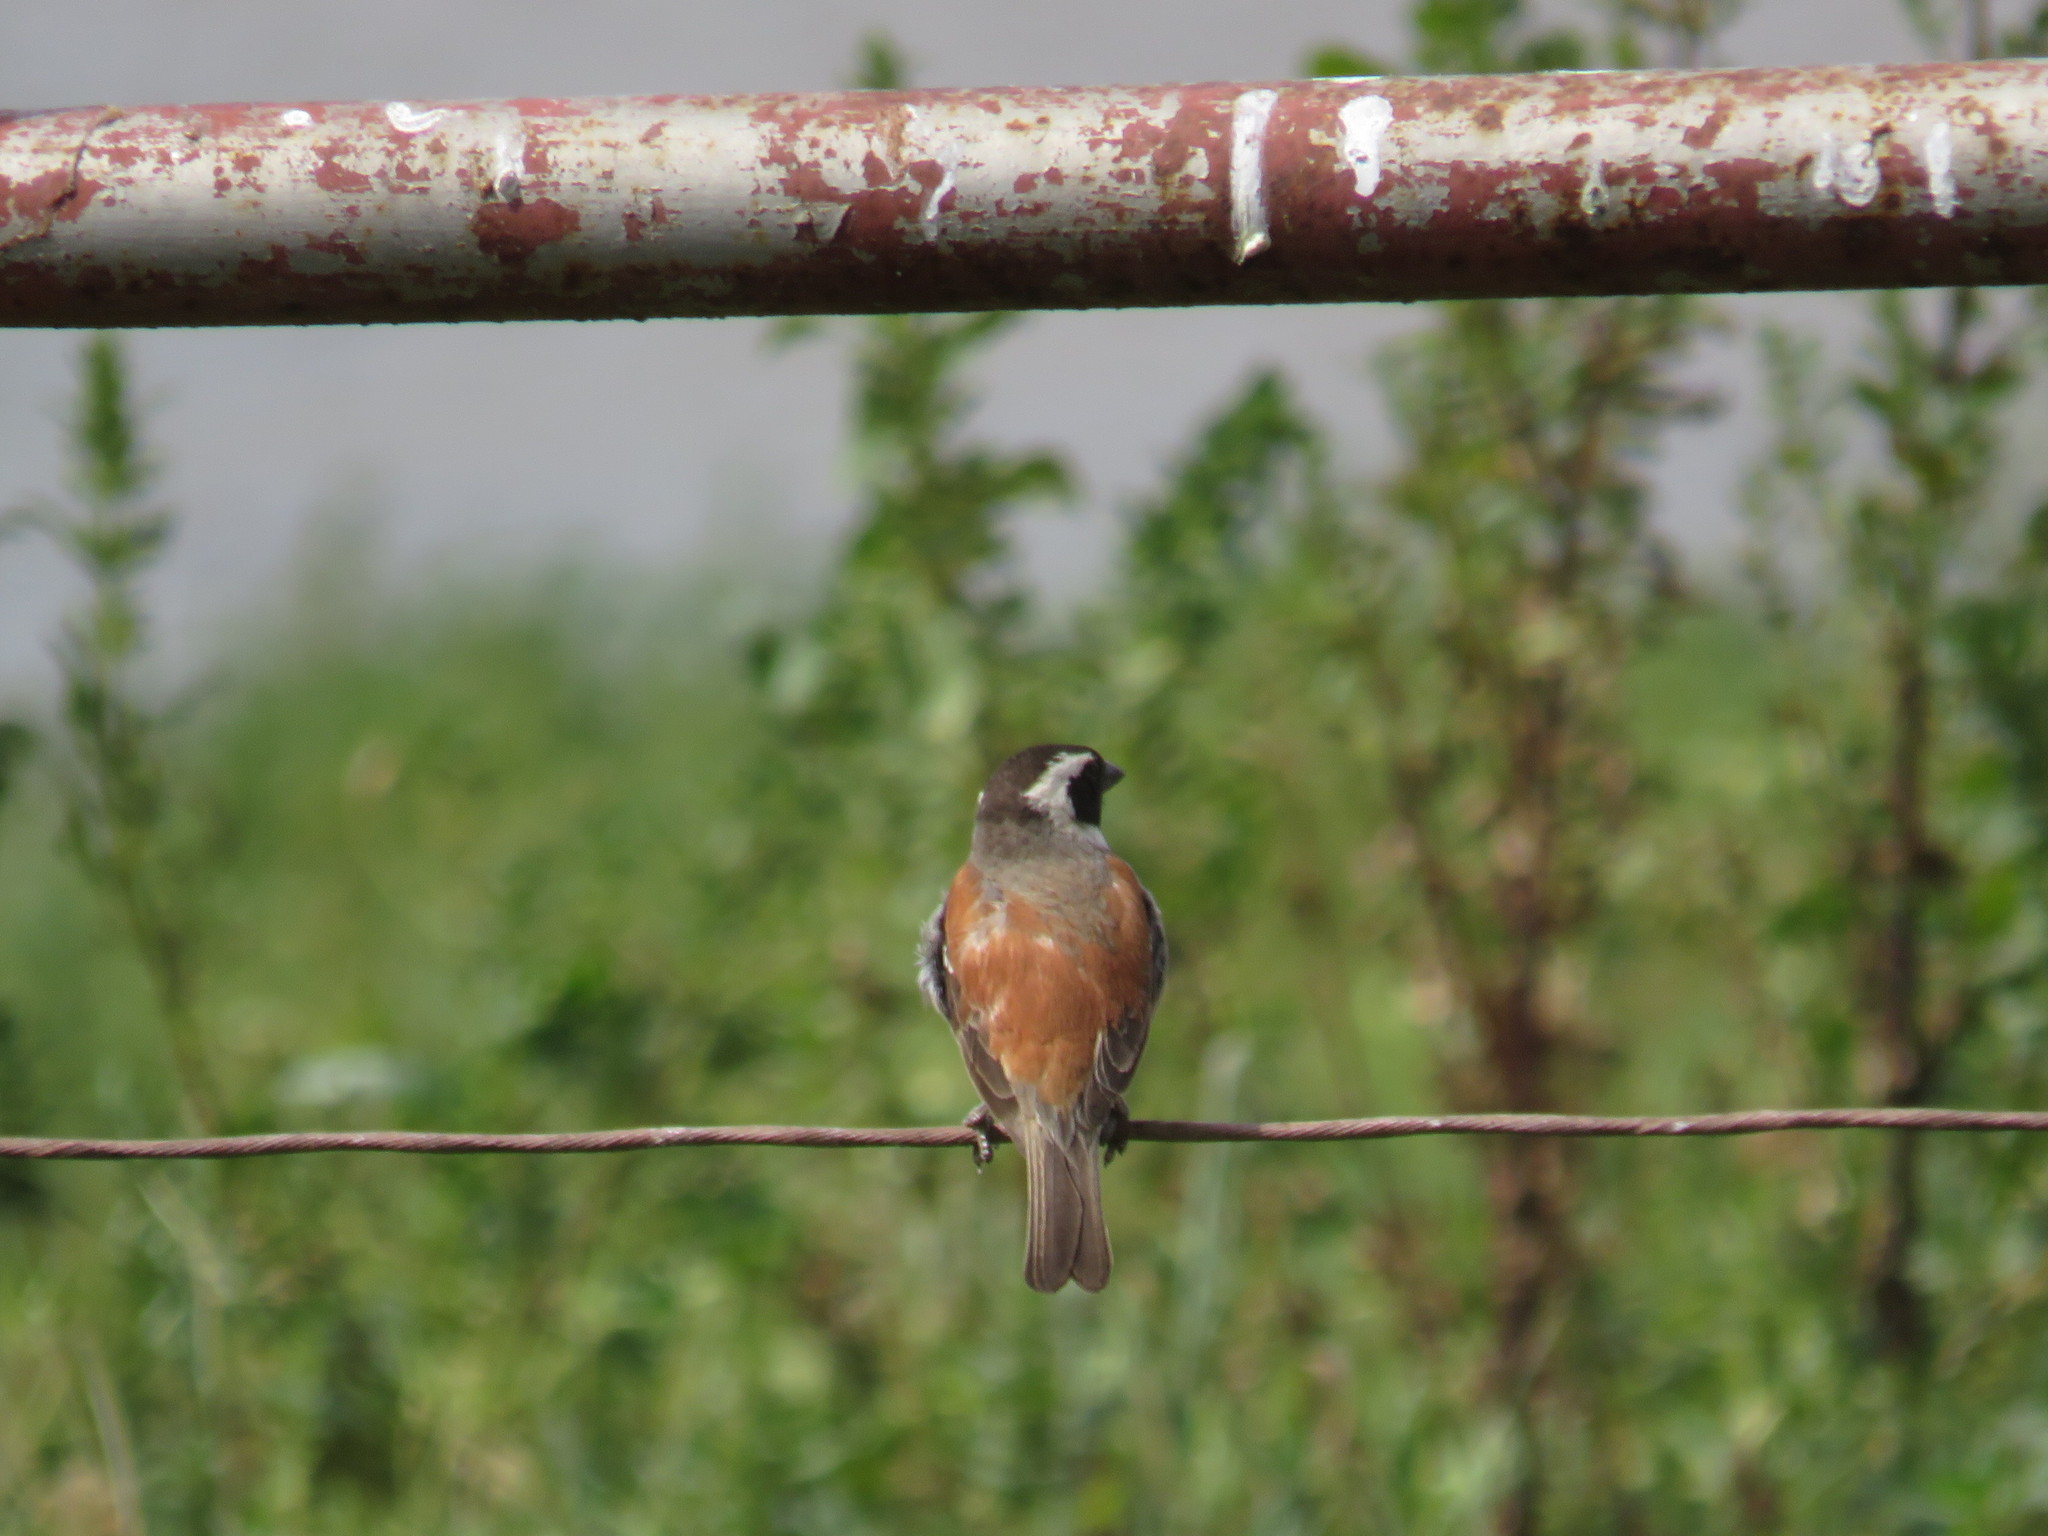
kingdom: Animalia
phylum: Chordata
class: Aves
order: Passeriformes
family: Passeridae
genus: Passer
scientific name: Passer melanurus
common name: Cape sparrow
